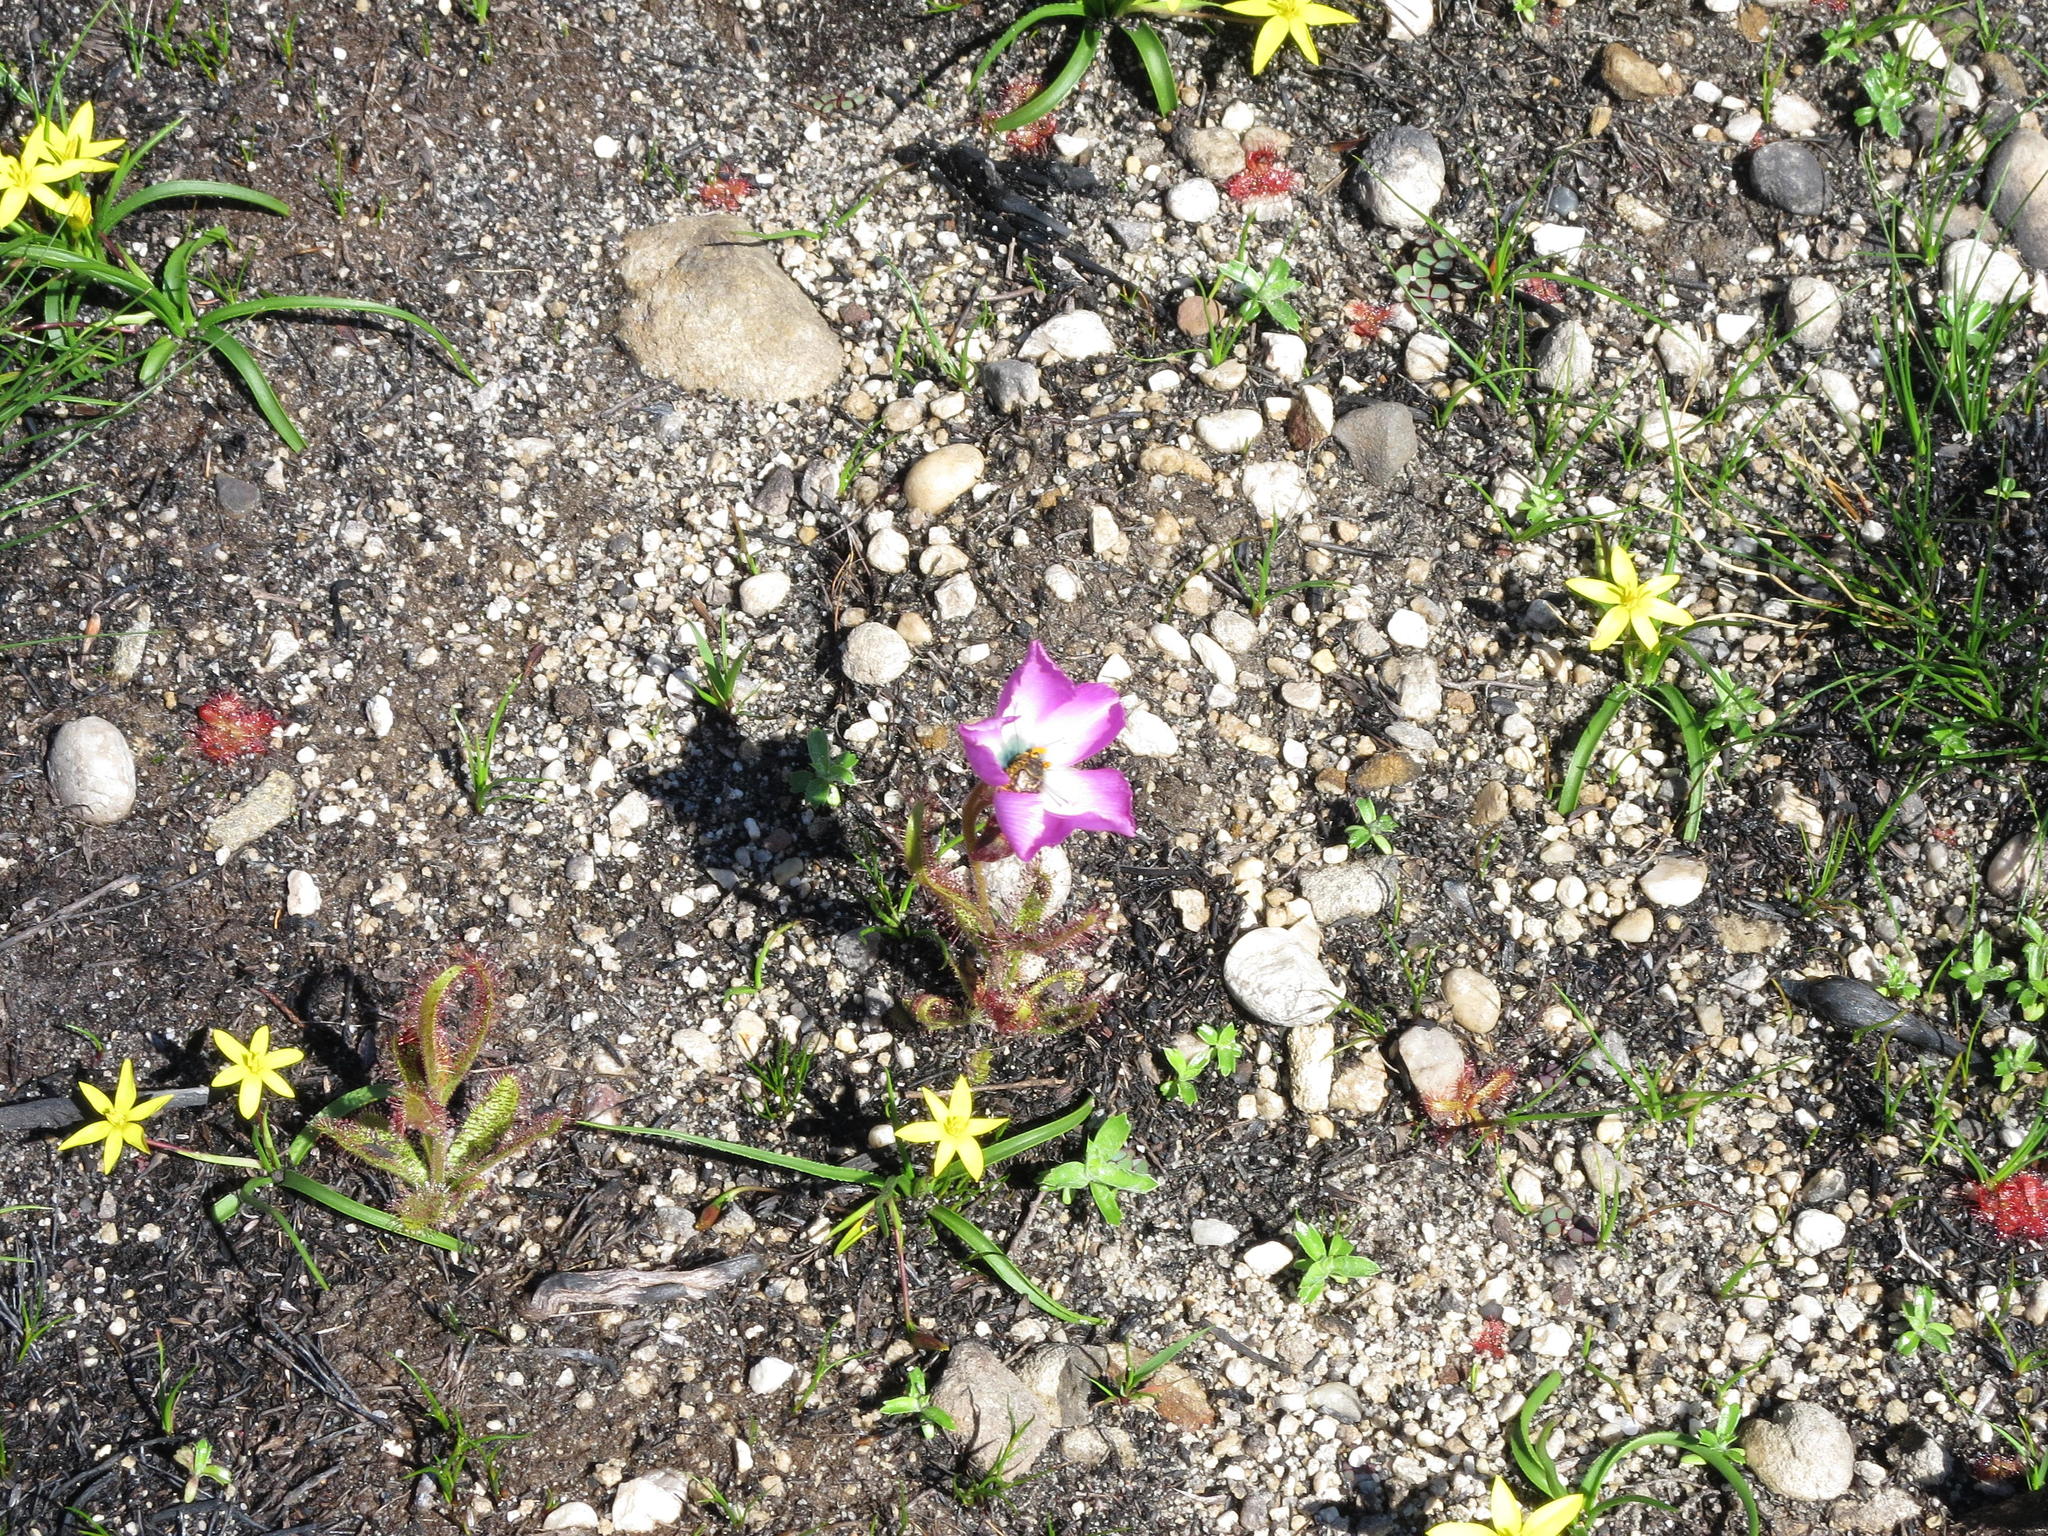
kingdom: Plantae
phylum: Tracheophyta
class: Magnoliopsida
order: Caryophyllales
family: Droseraceae
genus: Drosera
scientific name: Drosera cistiflora
